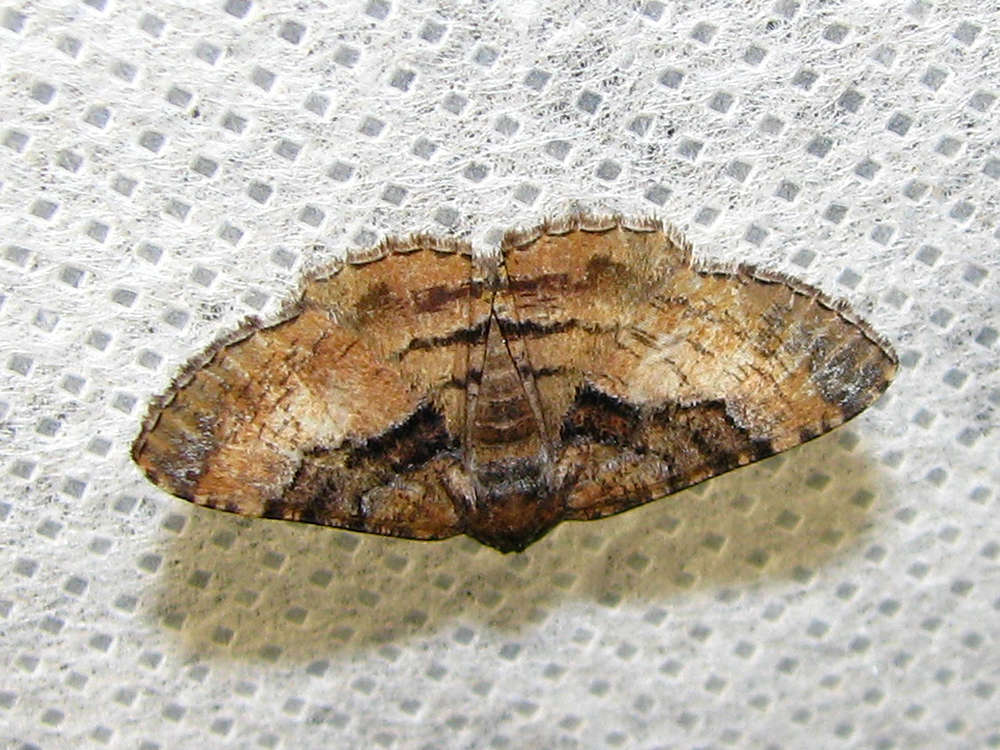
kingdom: Animalia
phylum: Arthropoda
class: Insecta
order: Lepidoptera
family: Geometridae
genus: Aporoctena
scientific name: Aporoctena
